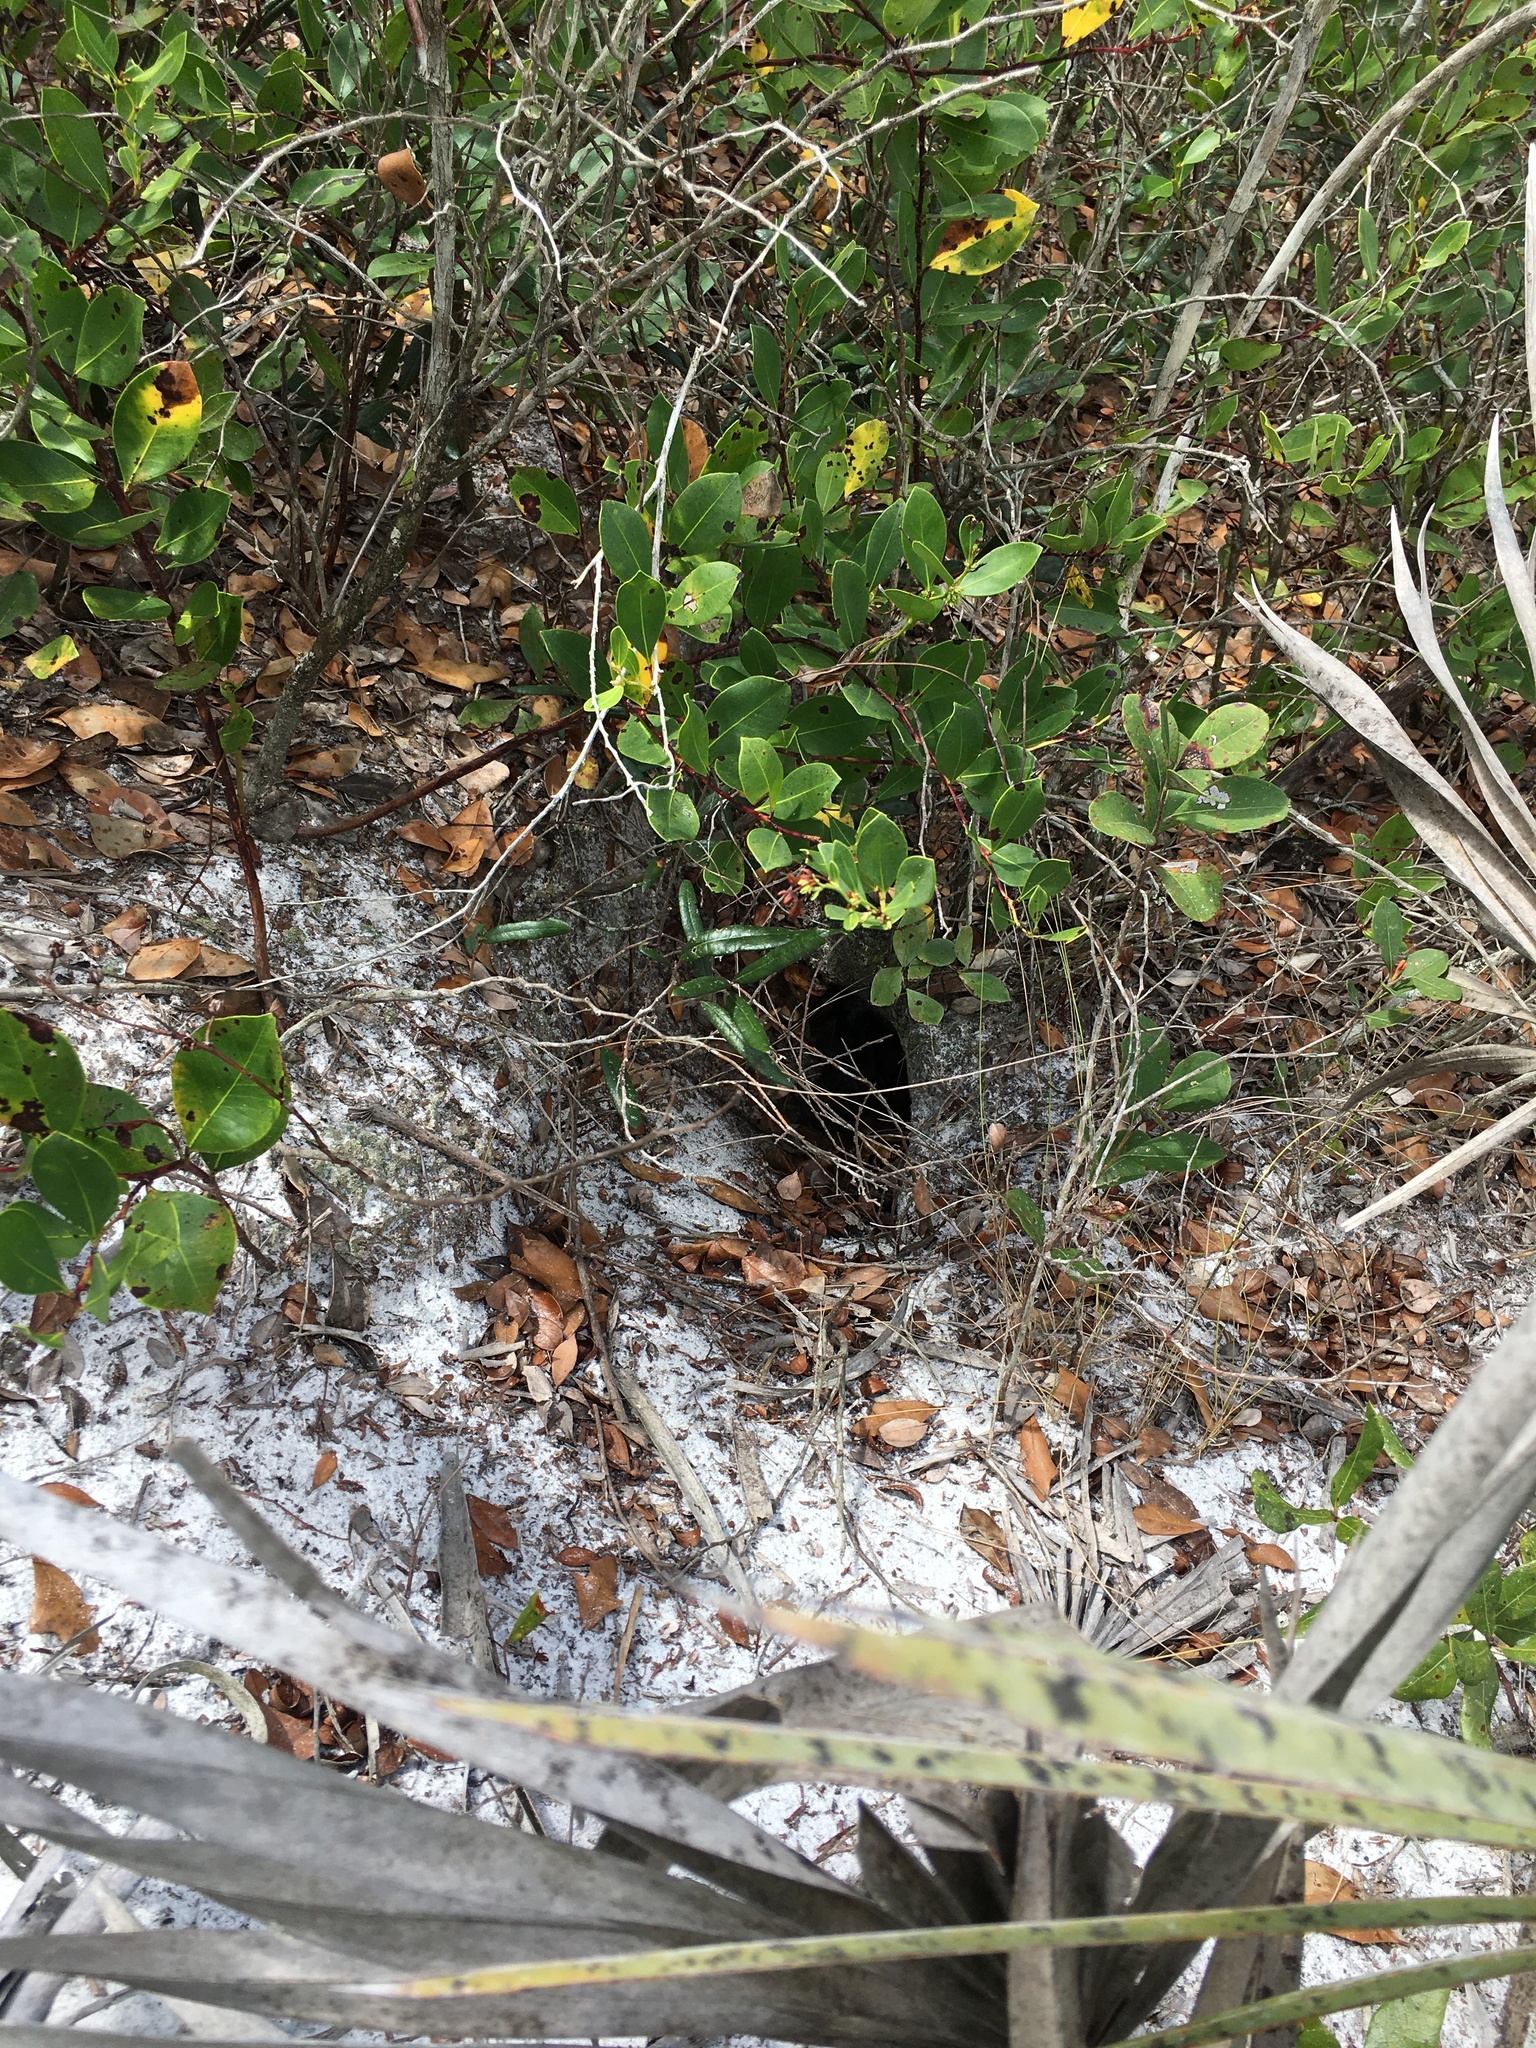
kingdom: Animalia
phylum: Chordata
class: Testudines
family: Testudinidae
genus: Gopherus
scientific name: Gopherus polyphemus
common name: Florida gopher tortoise
